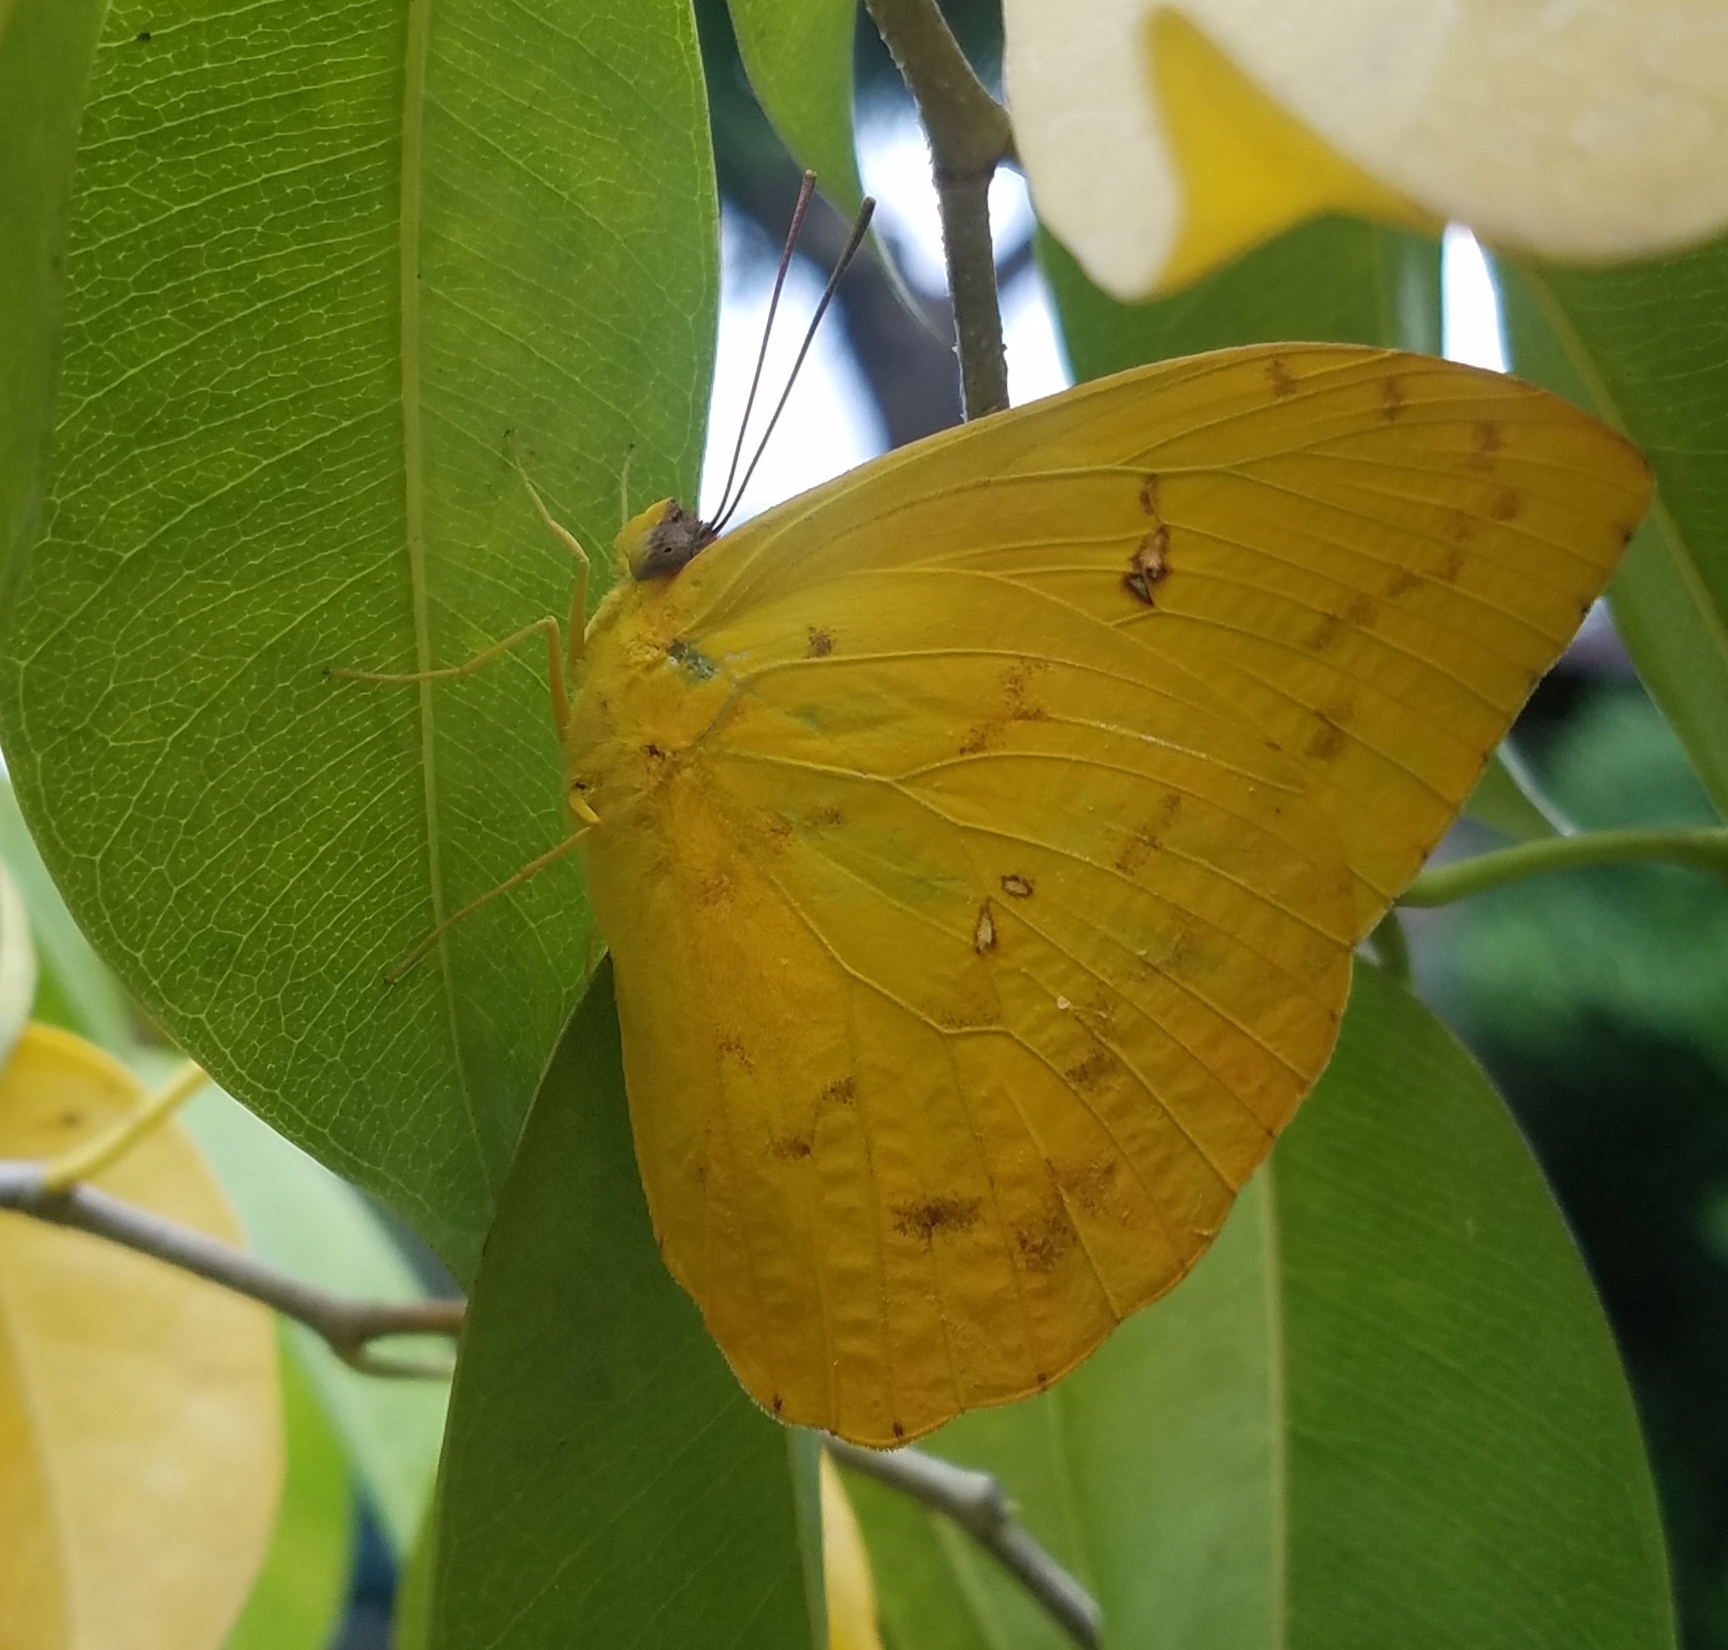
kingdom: Animalia
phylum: Arthropoda
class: Insecta
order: Lepidoptera
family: Pieridae
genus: Phoebis
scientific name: Phoebis argante
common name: Apricot sulphur
